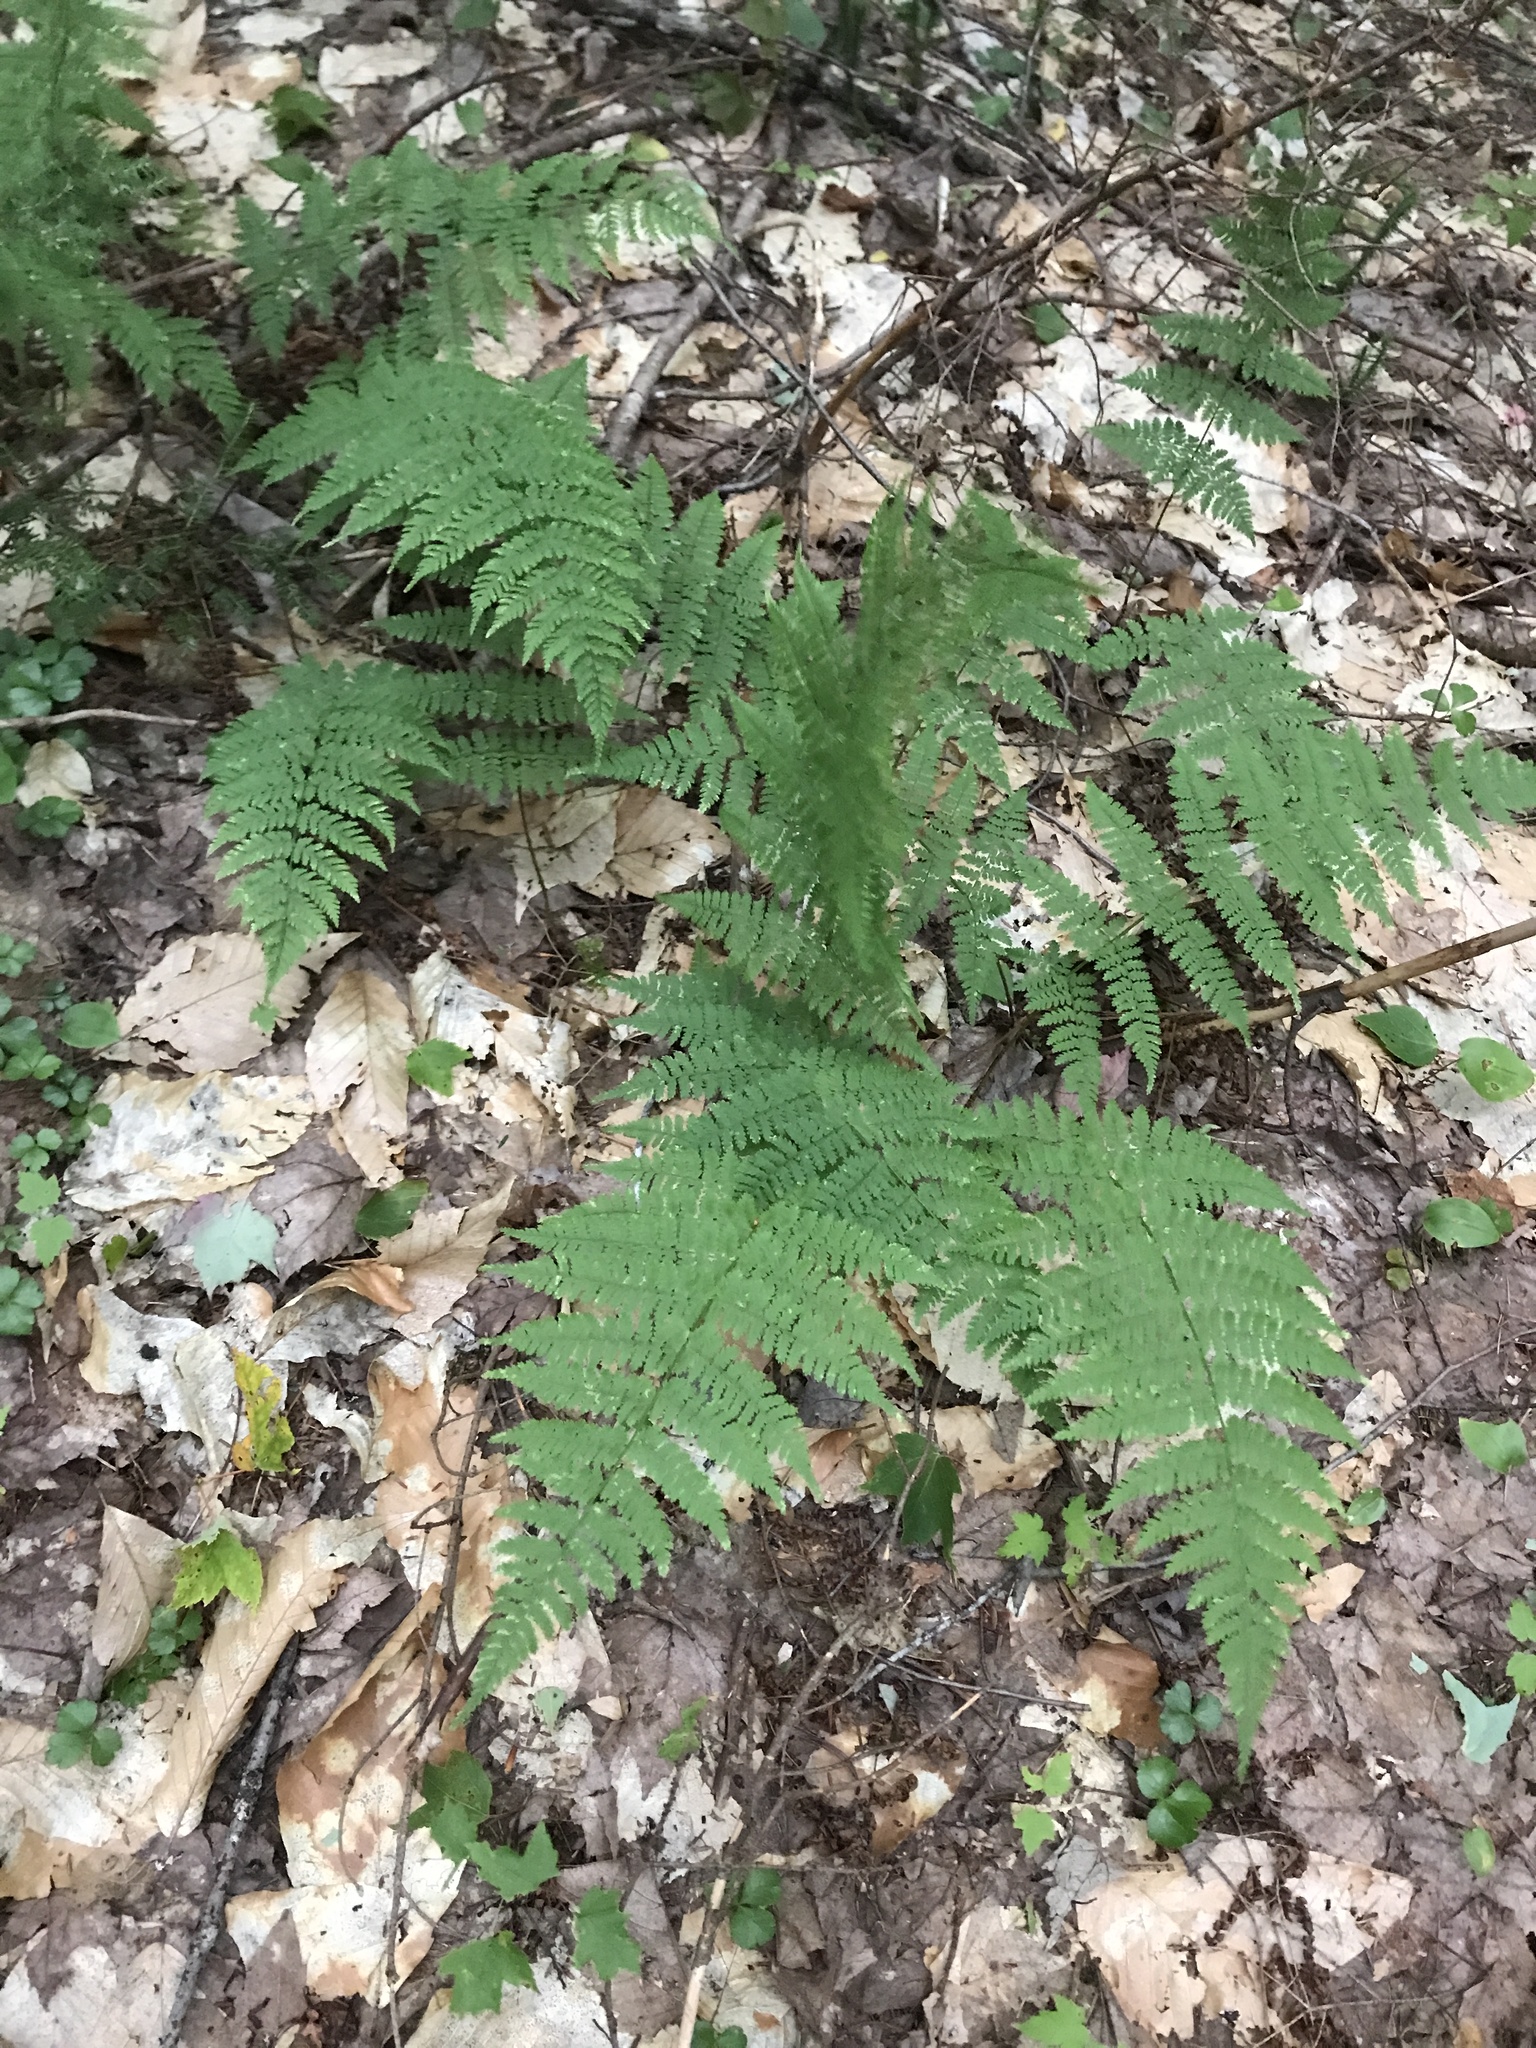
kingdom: Plantae
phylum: Tracheophyta
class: Polypodiopsida
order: Polypodiales
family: Dryopteridaceae
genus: Dryopteris
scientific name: Dryopteris intermedia
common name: Evergreen wood fern
